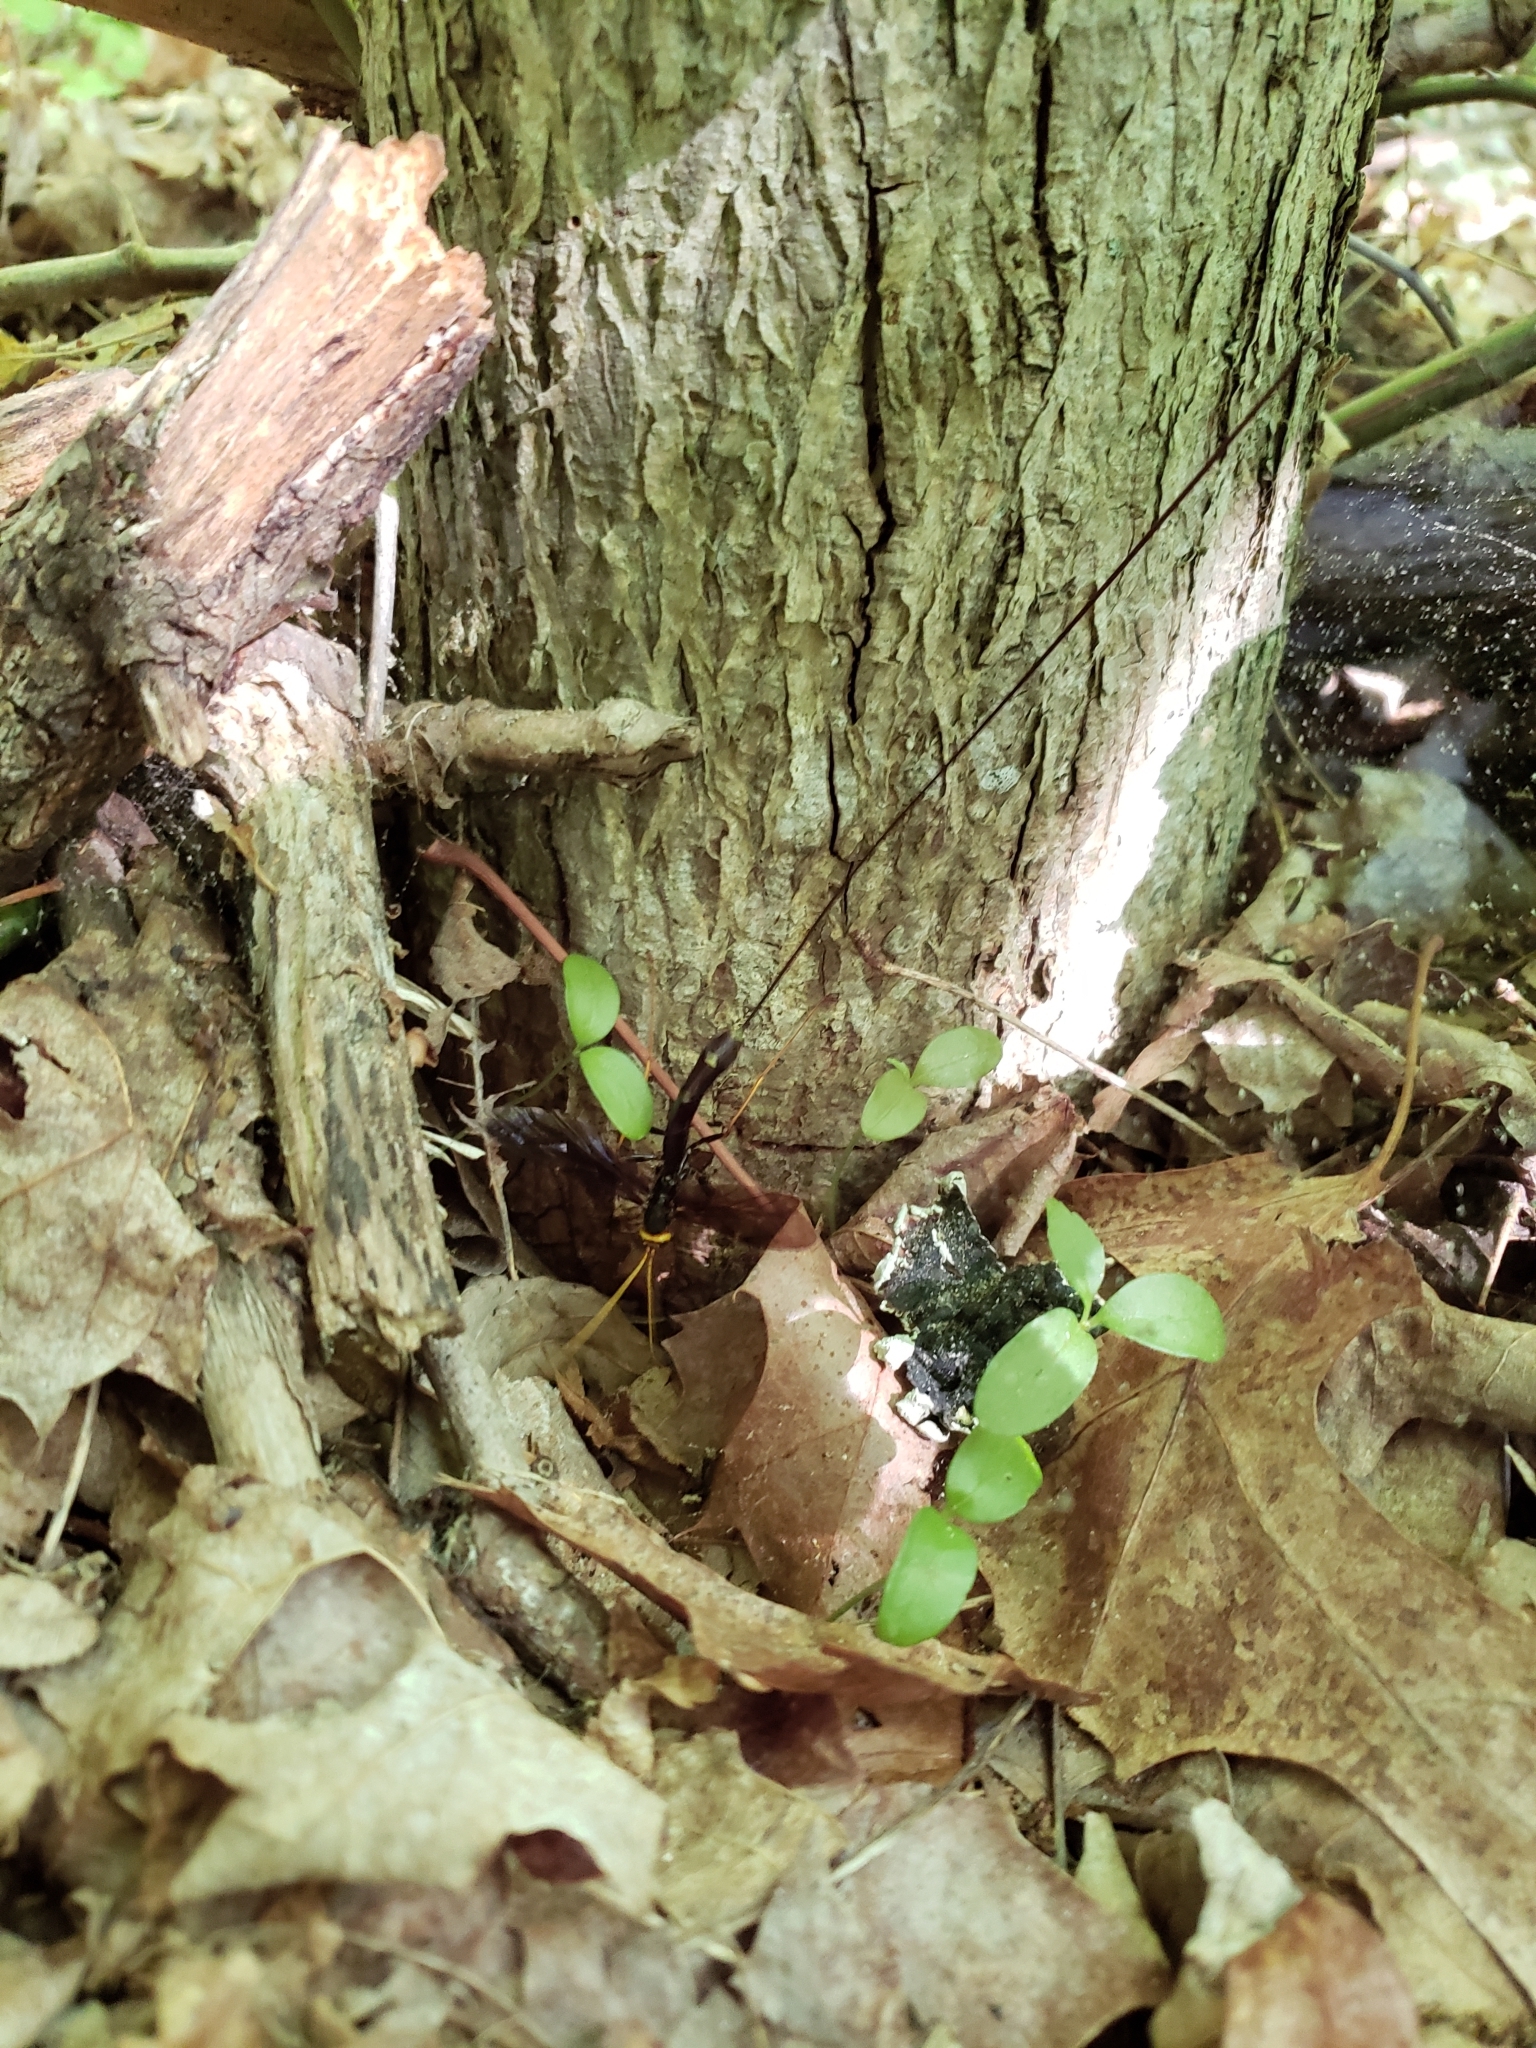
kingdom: Animalia
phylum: Arthropoda
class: Insecta
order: Hymenoptera
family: Ichneumonidae
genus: Megarhyssa
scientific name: Megarhyssa atrata
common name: Black giant ichneumonid wasp
